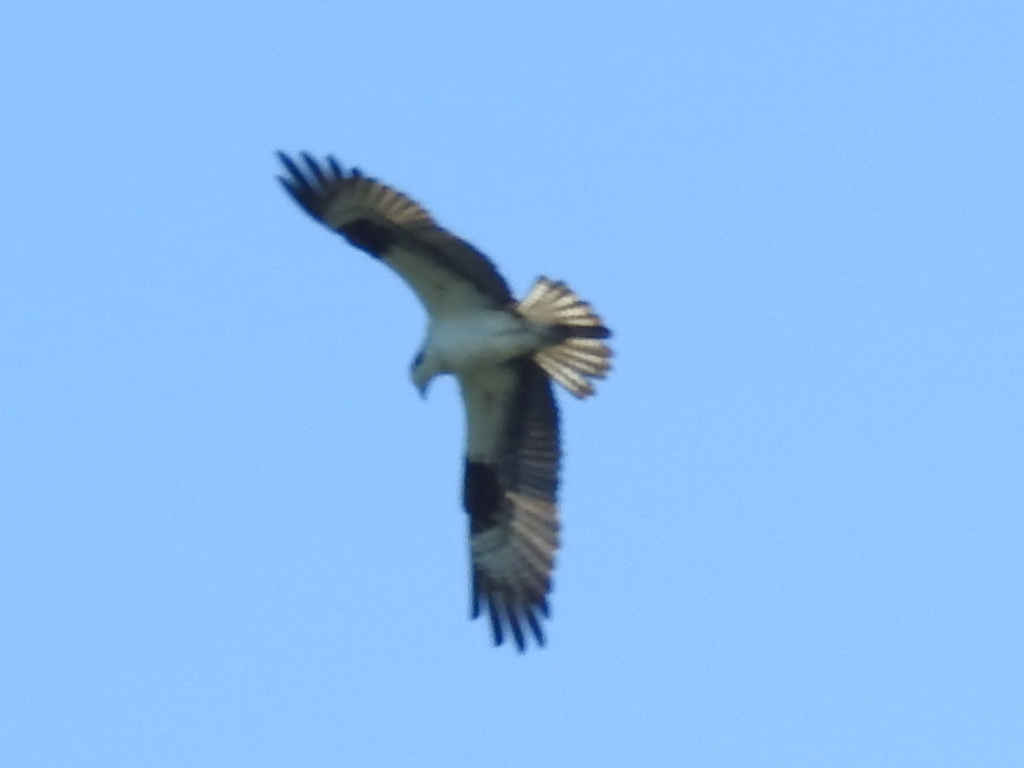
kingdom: Animalia
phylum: Chordata
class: Aves
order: Accipitriformes
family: Pandionidae
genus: Pandion
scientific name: Pandion haliaetus
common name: Osprey
